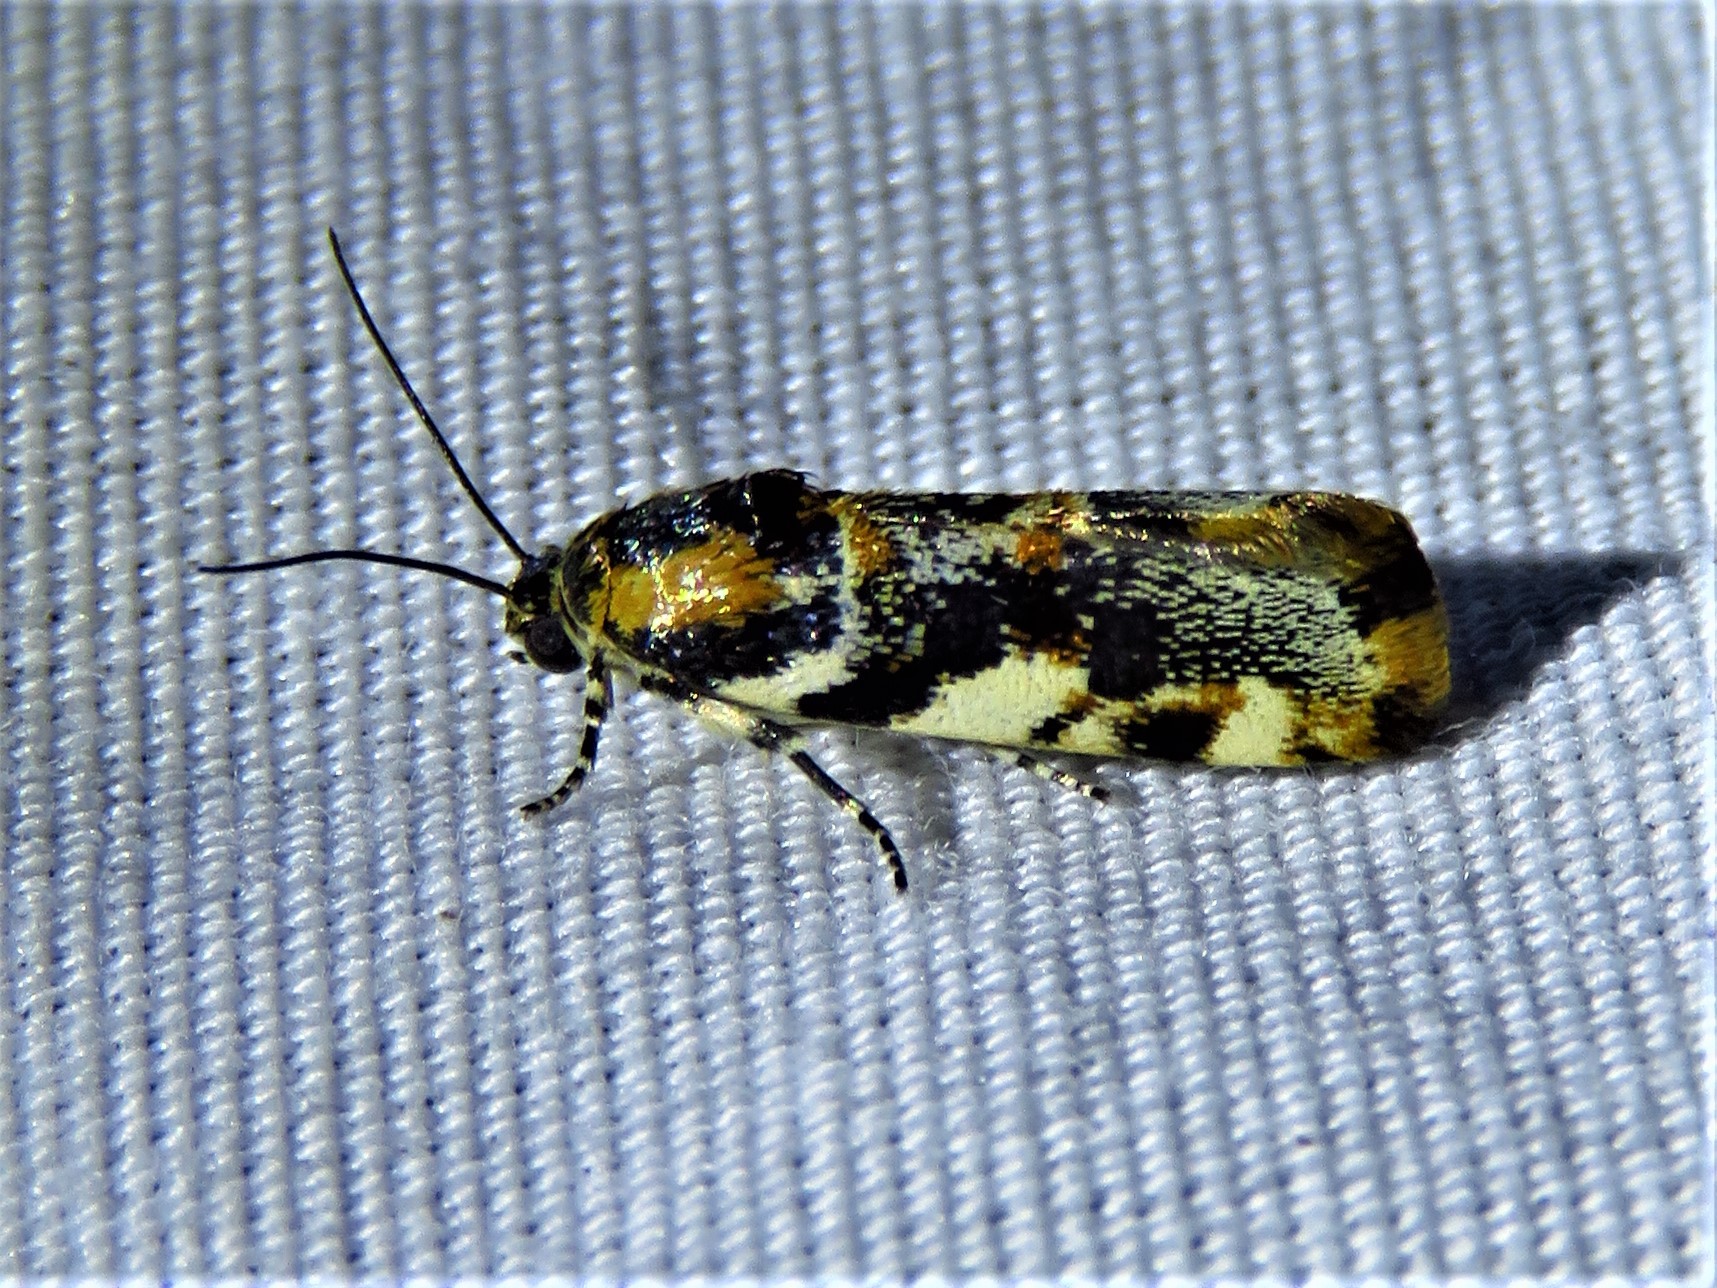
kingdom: Animalia
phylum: Arthropoda
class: Insecta
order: Lepidoptera
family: Noctuidae
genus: Spragueia
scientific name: Spragueia jaguaralis
